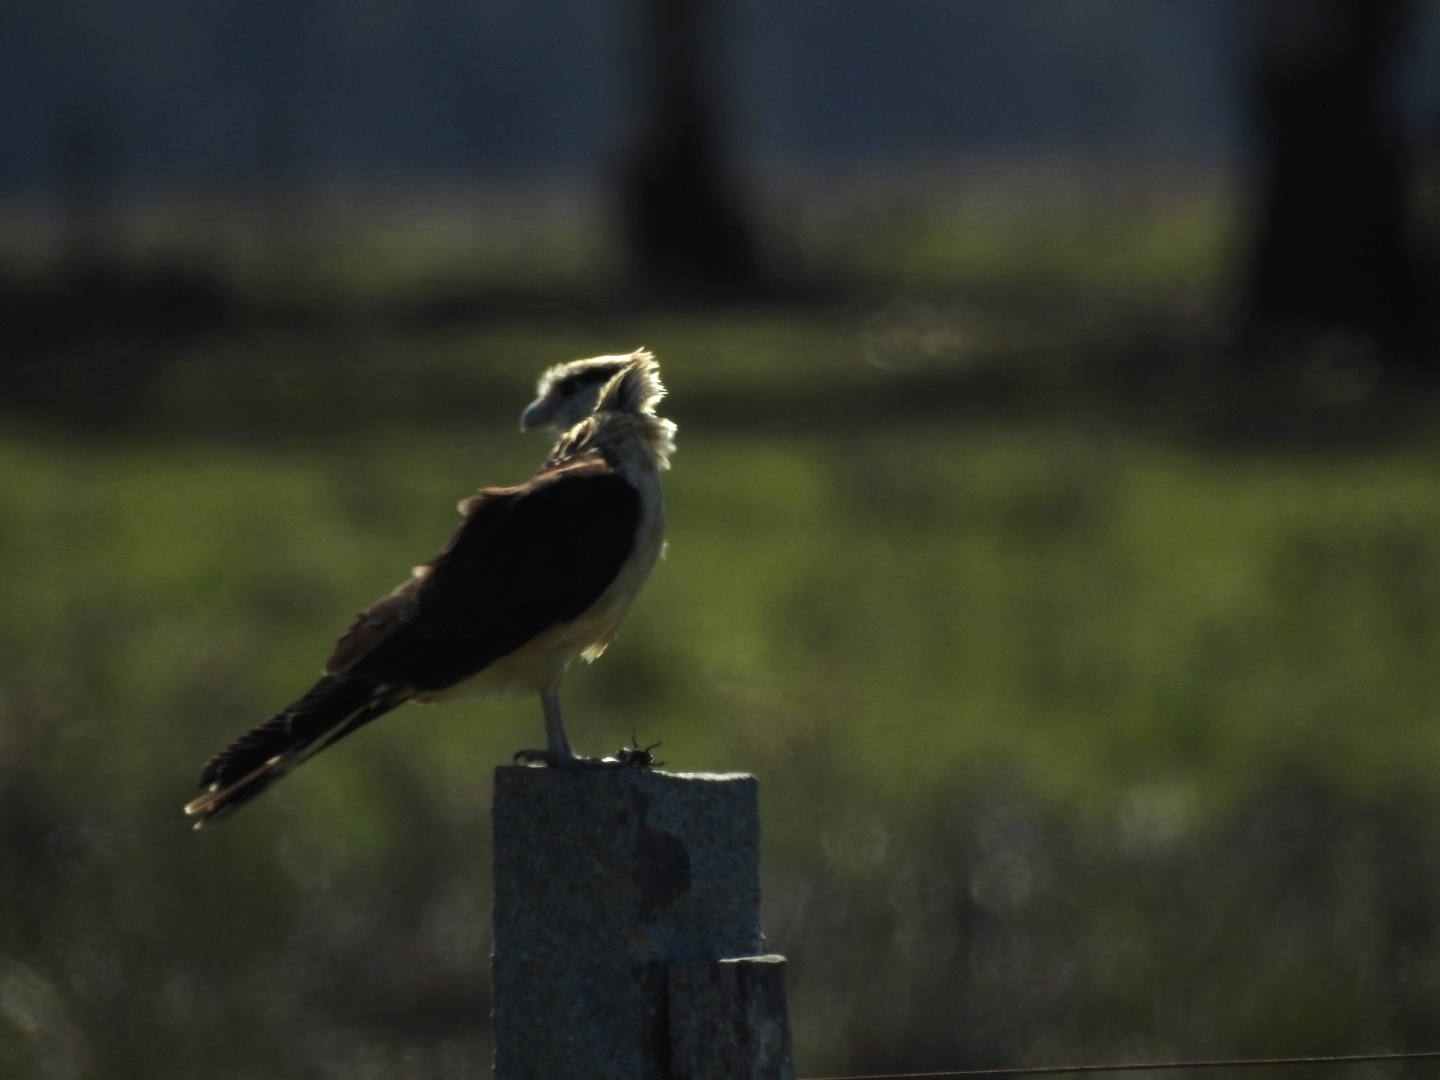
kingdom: Animalia
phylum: Chordata
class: Aves
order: Falconiformes
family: Falconidae
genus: Daptrius
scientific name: Daptrius
